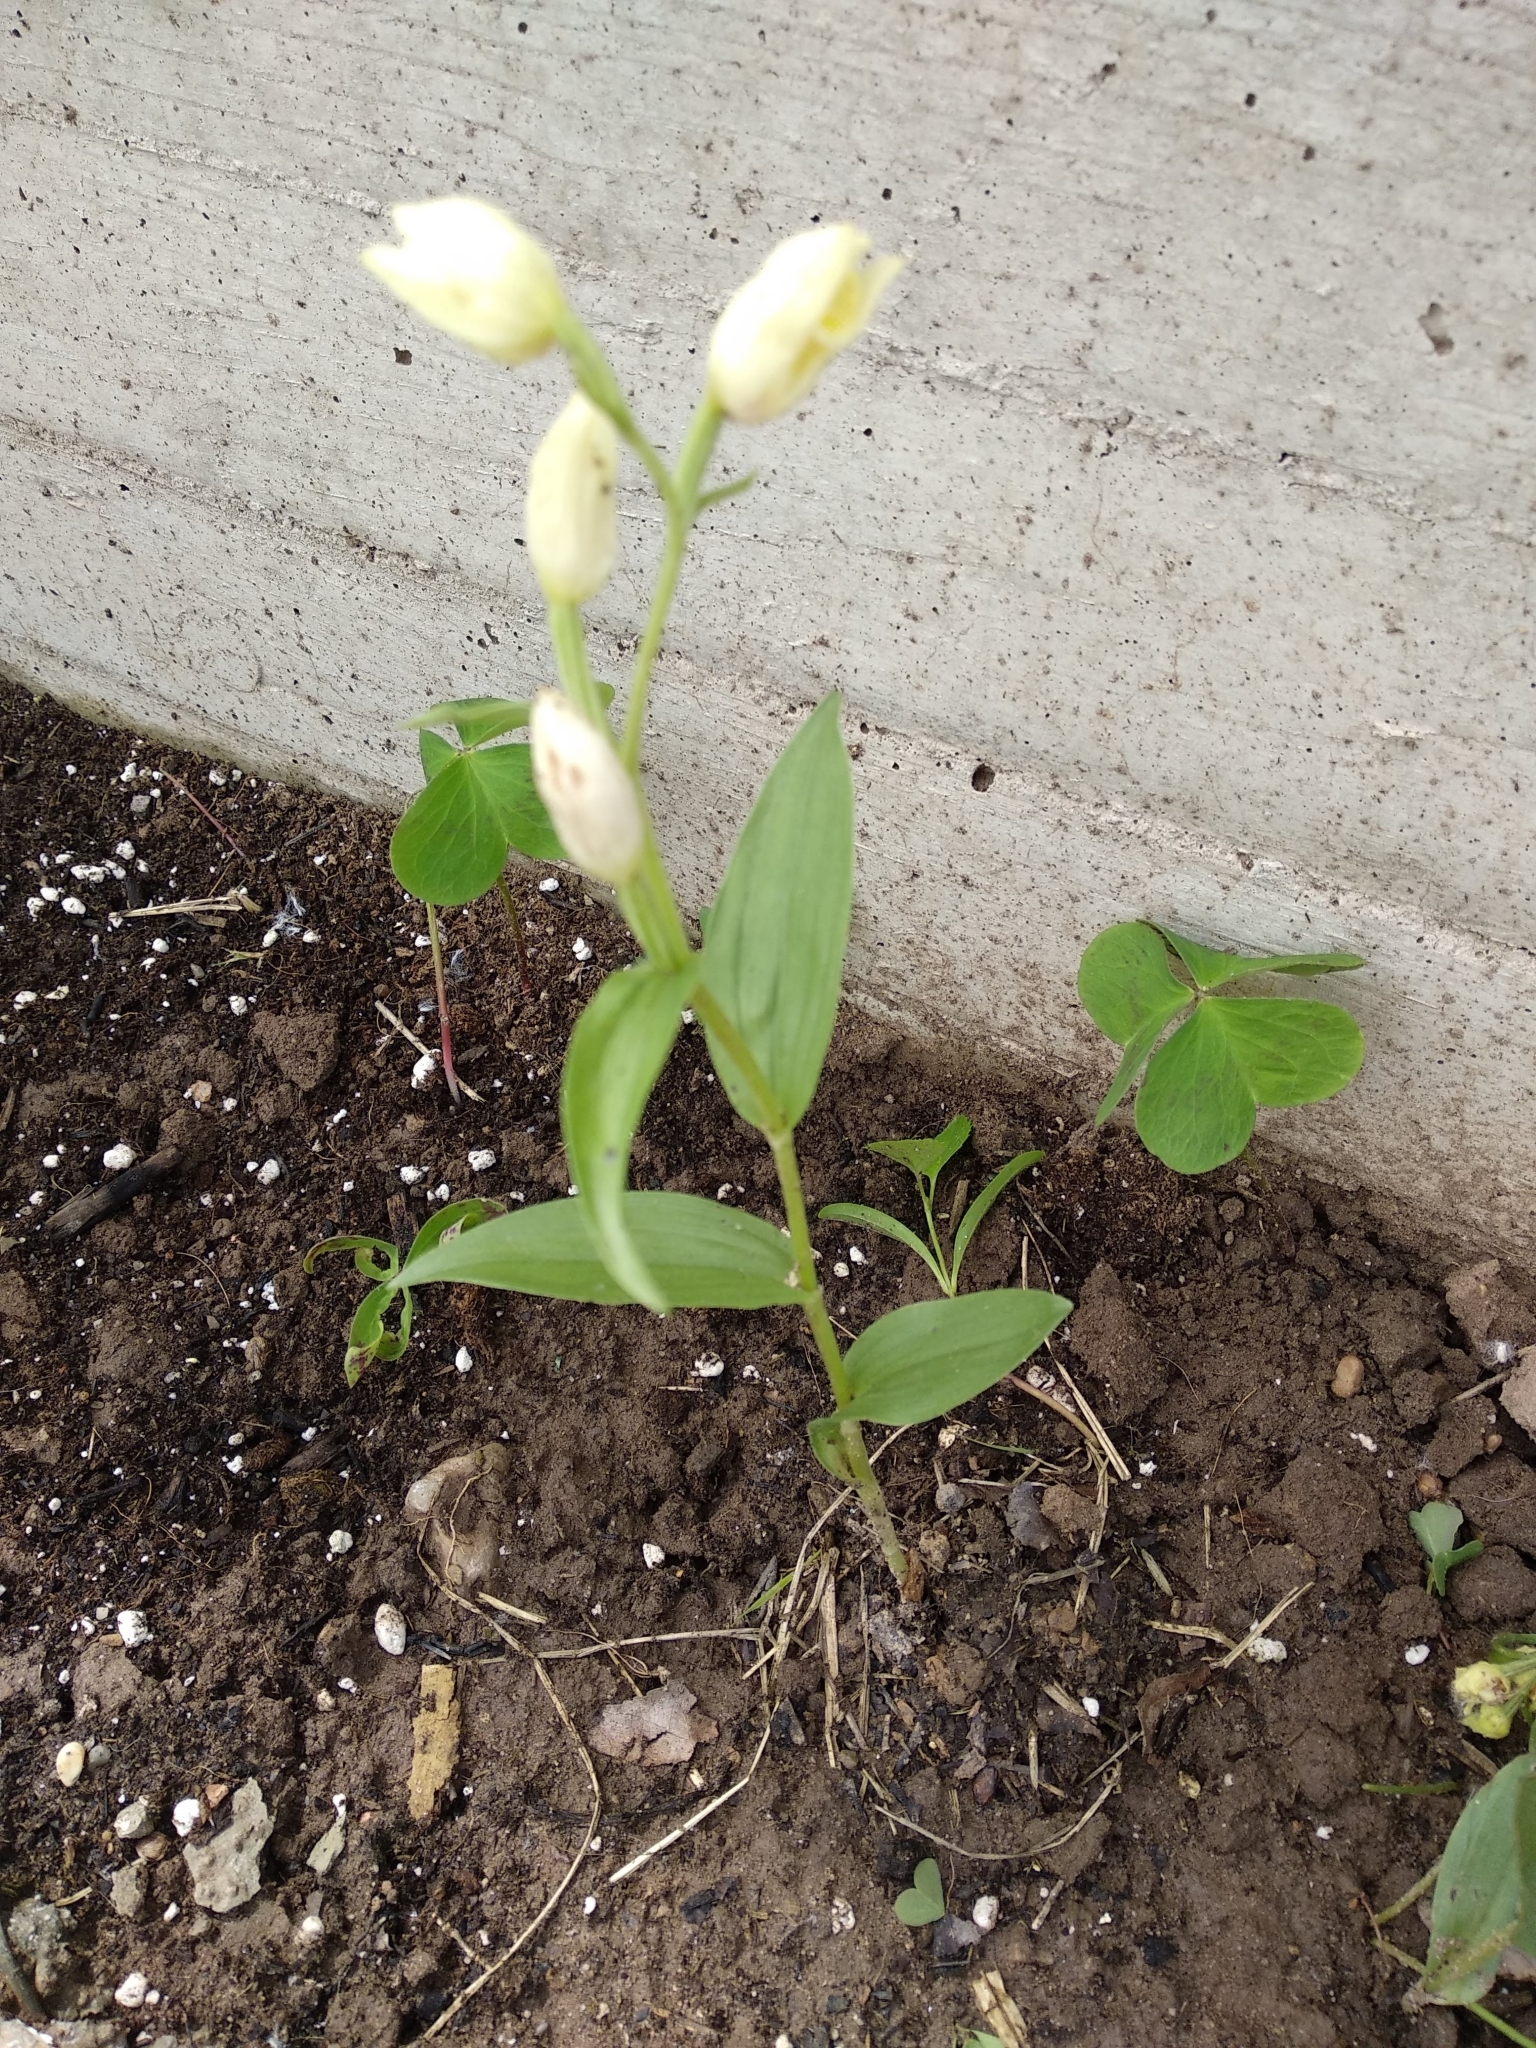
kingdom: Plantae
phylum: Tracheophyta
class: Liliopsida
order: Asparagales
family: Orchidaceae
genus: Cephalanthera
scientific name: Cephalanthera damasonium
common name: White helleborine
